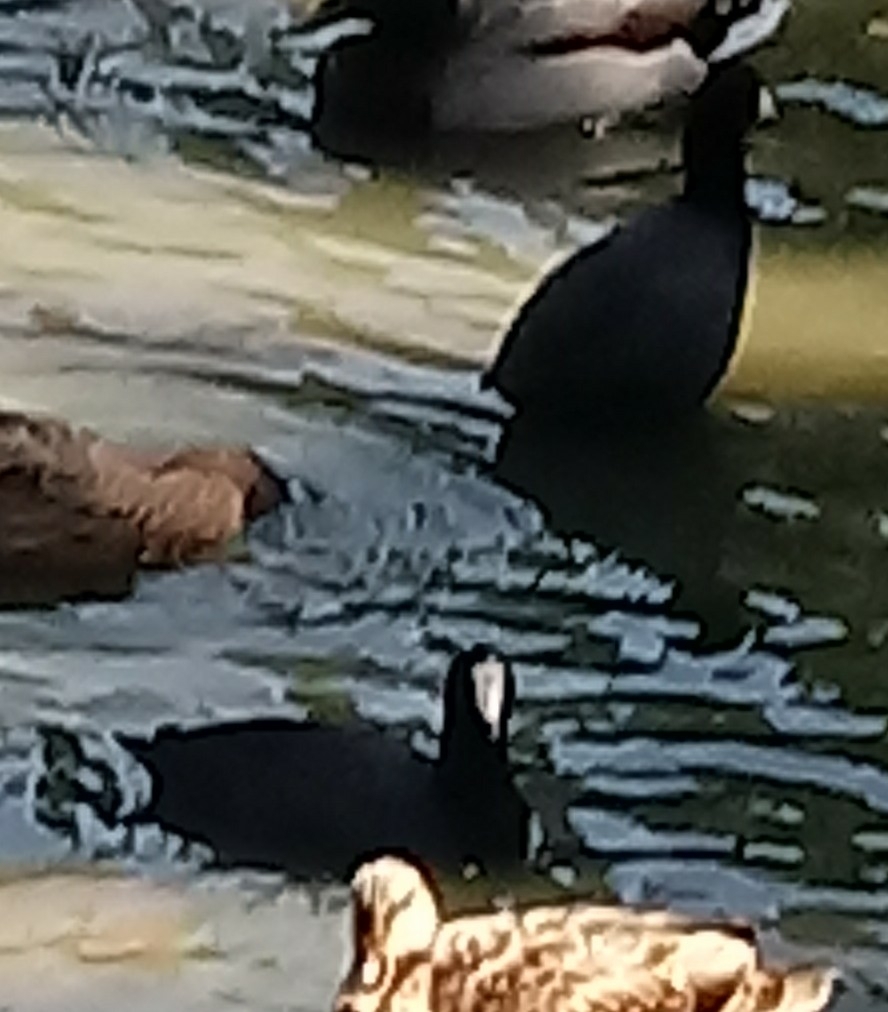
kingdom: Animalia
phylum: Chordata
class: Aves
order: Gruiformes
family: Rallidae
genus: Fulica
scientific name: Fulica americana
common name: American coot
